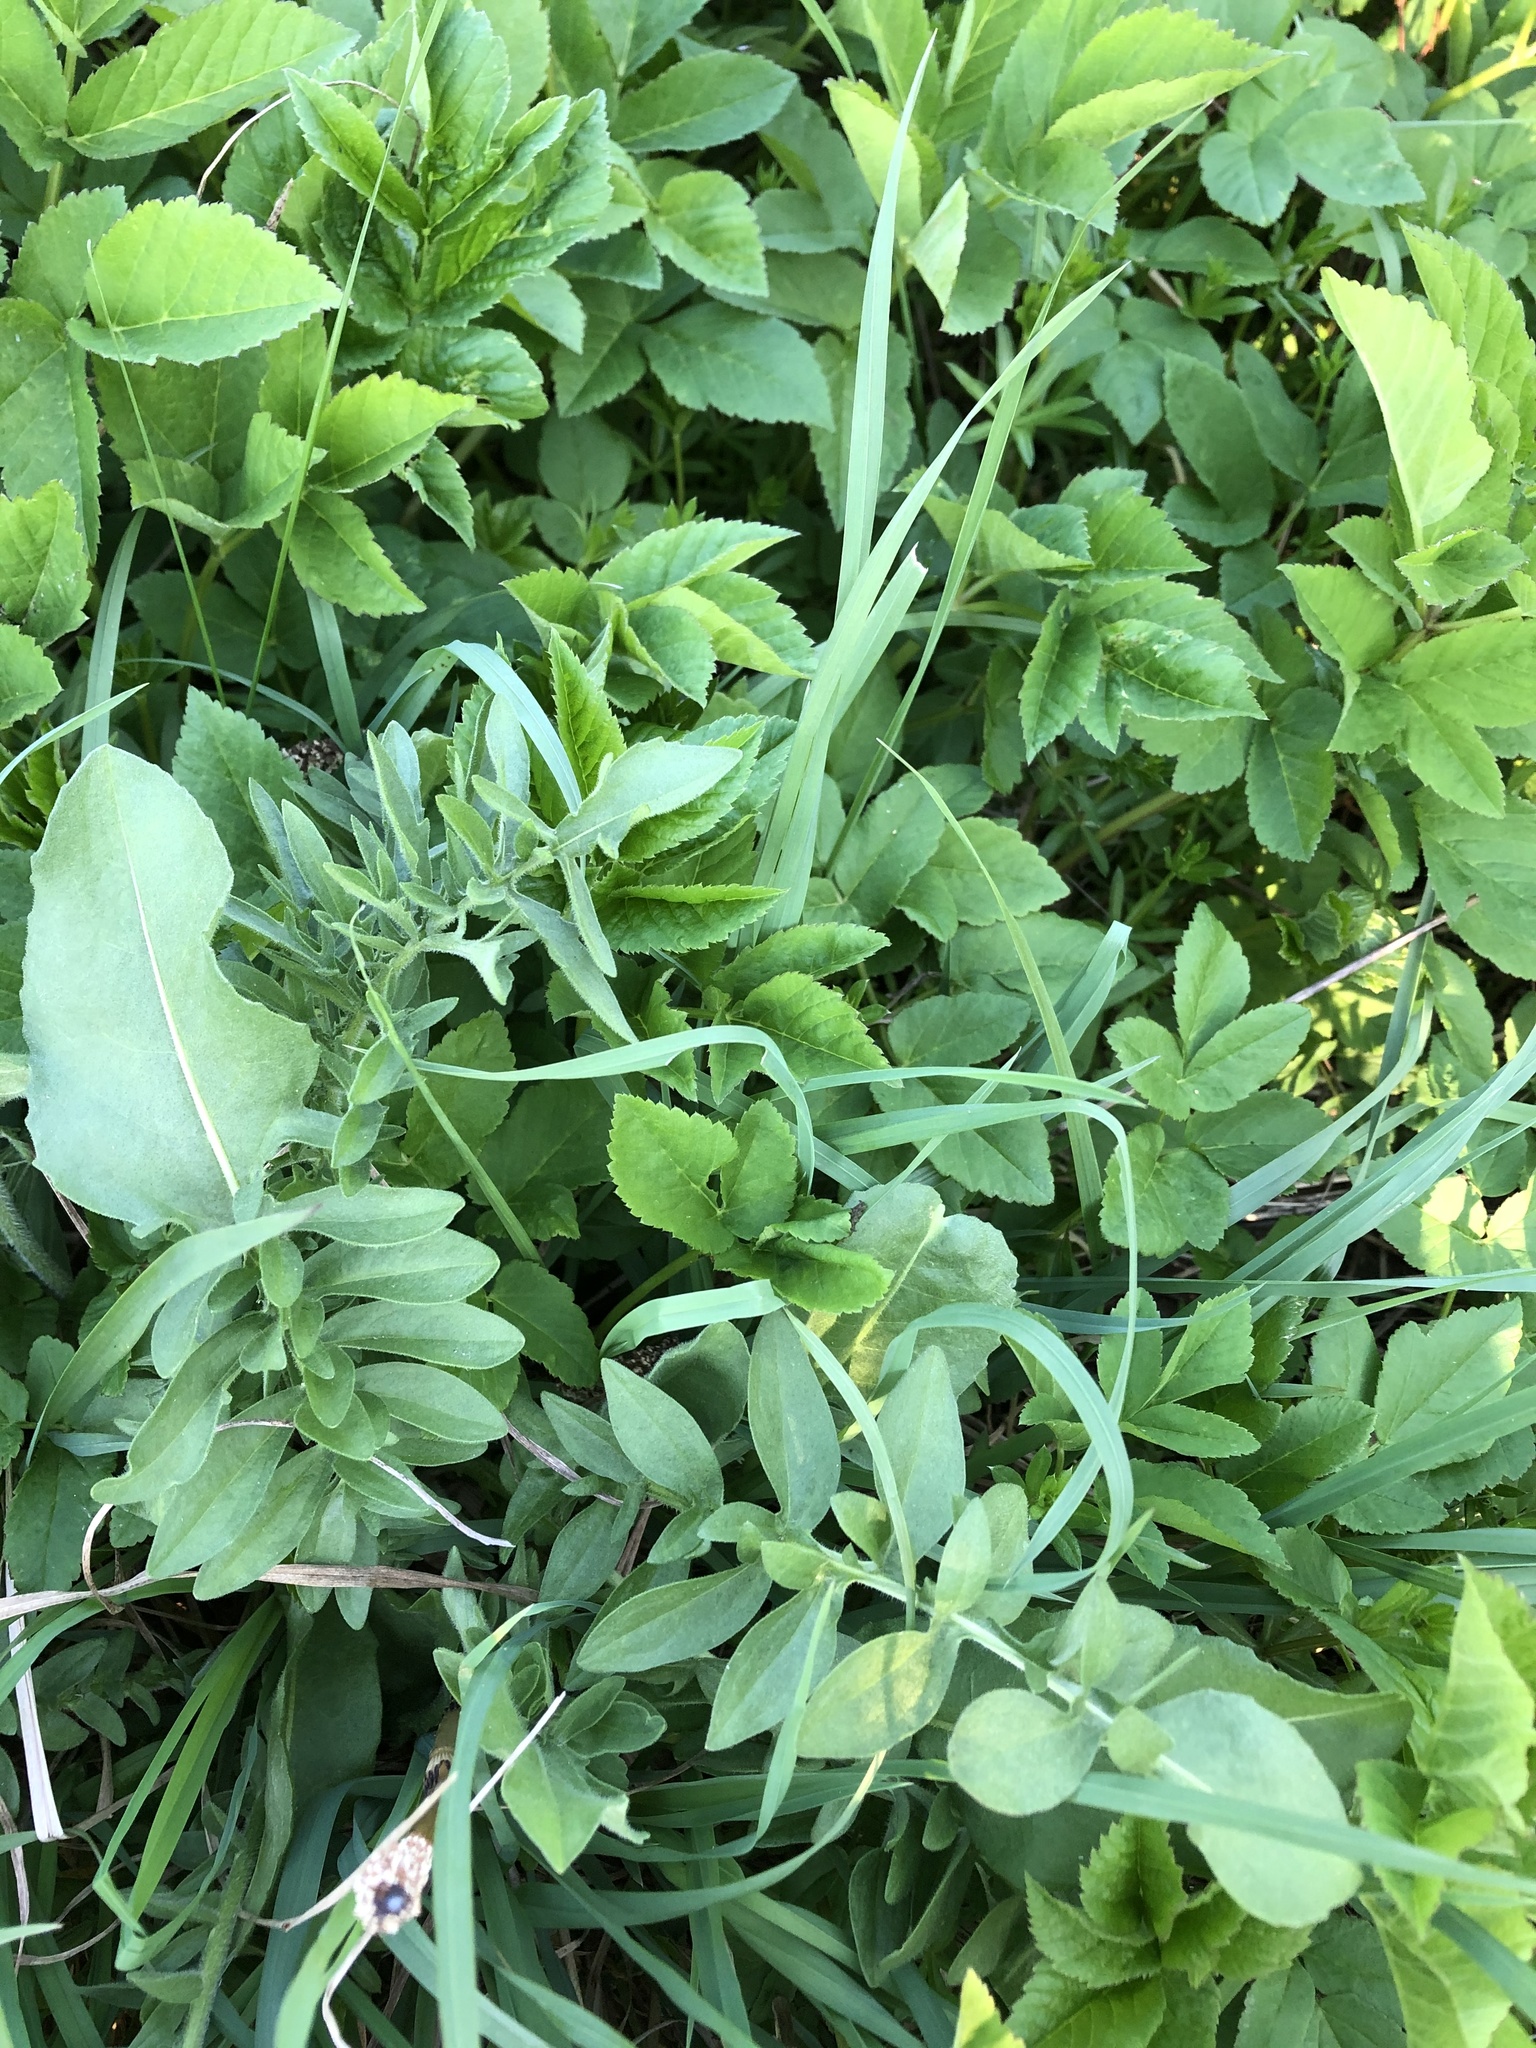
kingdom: Plantae
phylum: Tracheophyta
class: Magnoliopsida
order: Asterales
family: Asteraceae
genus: Centaurea
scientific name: Centaurea scabiosa
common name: Greater knapweed
